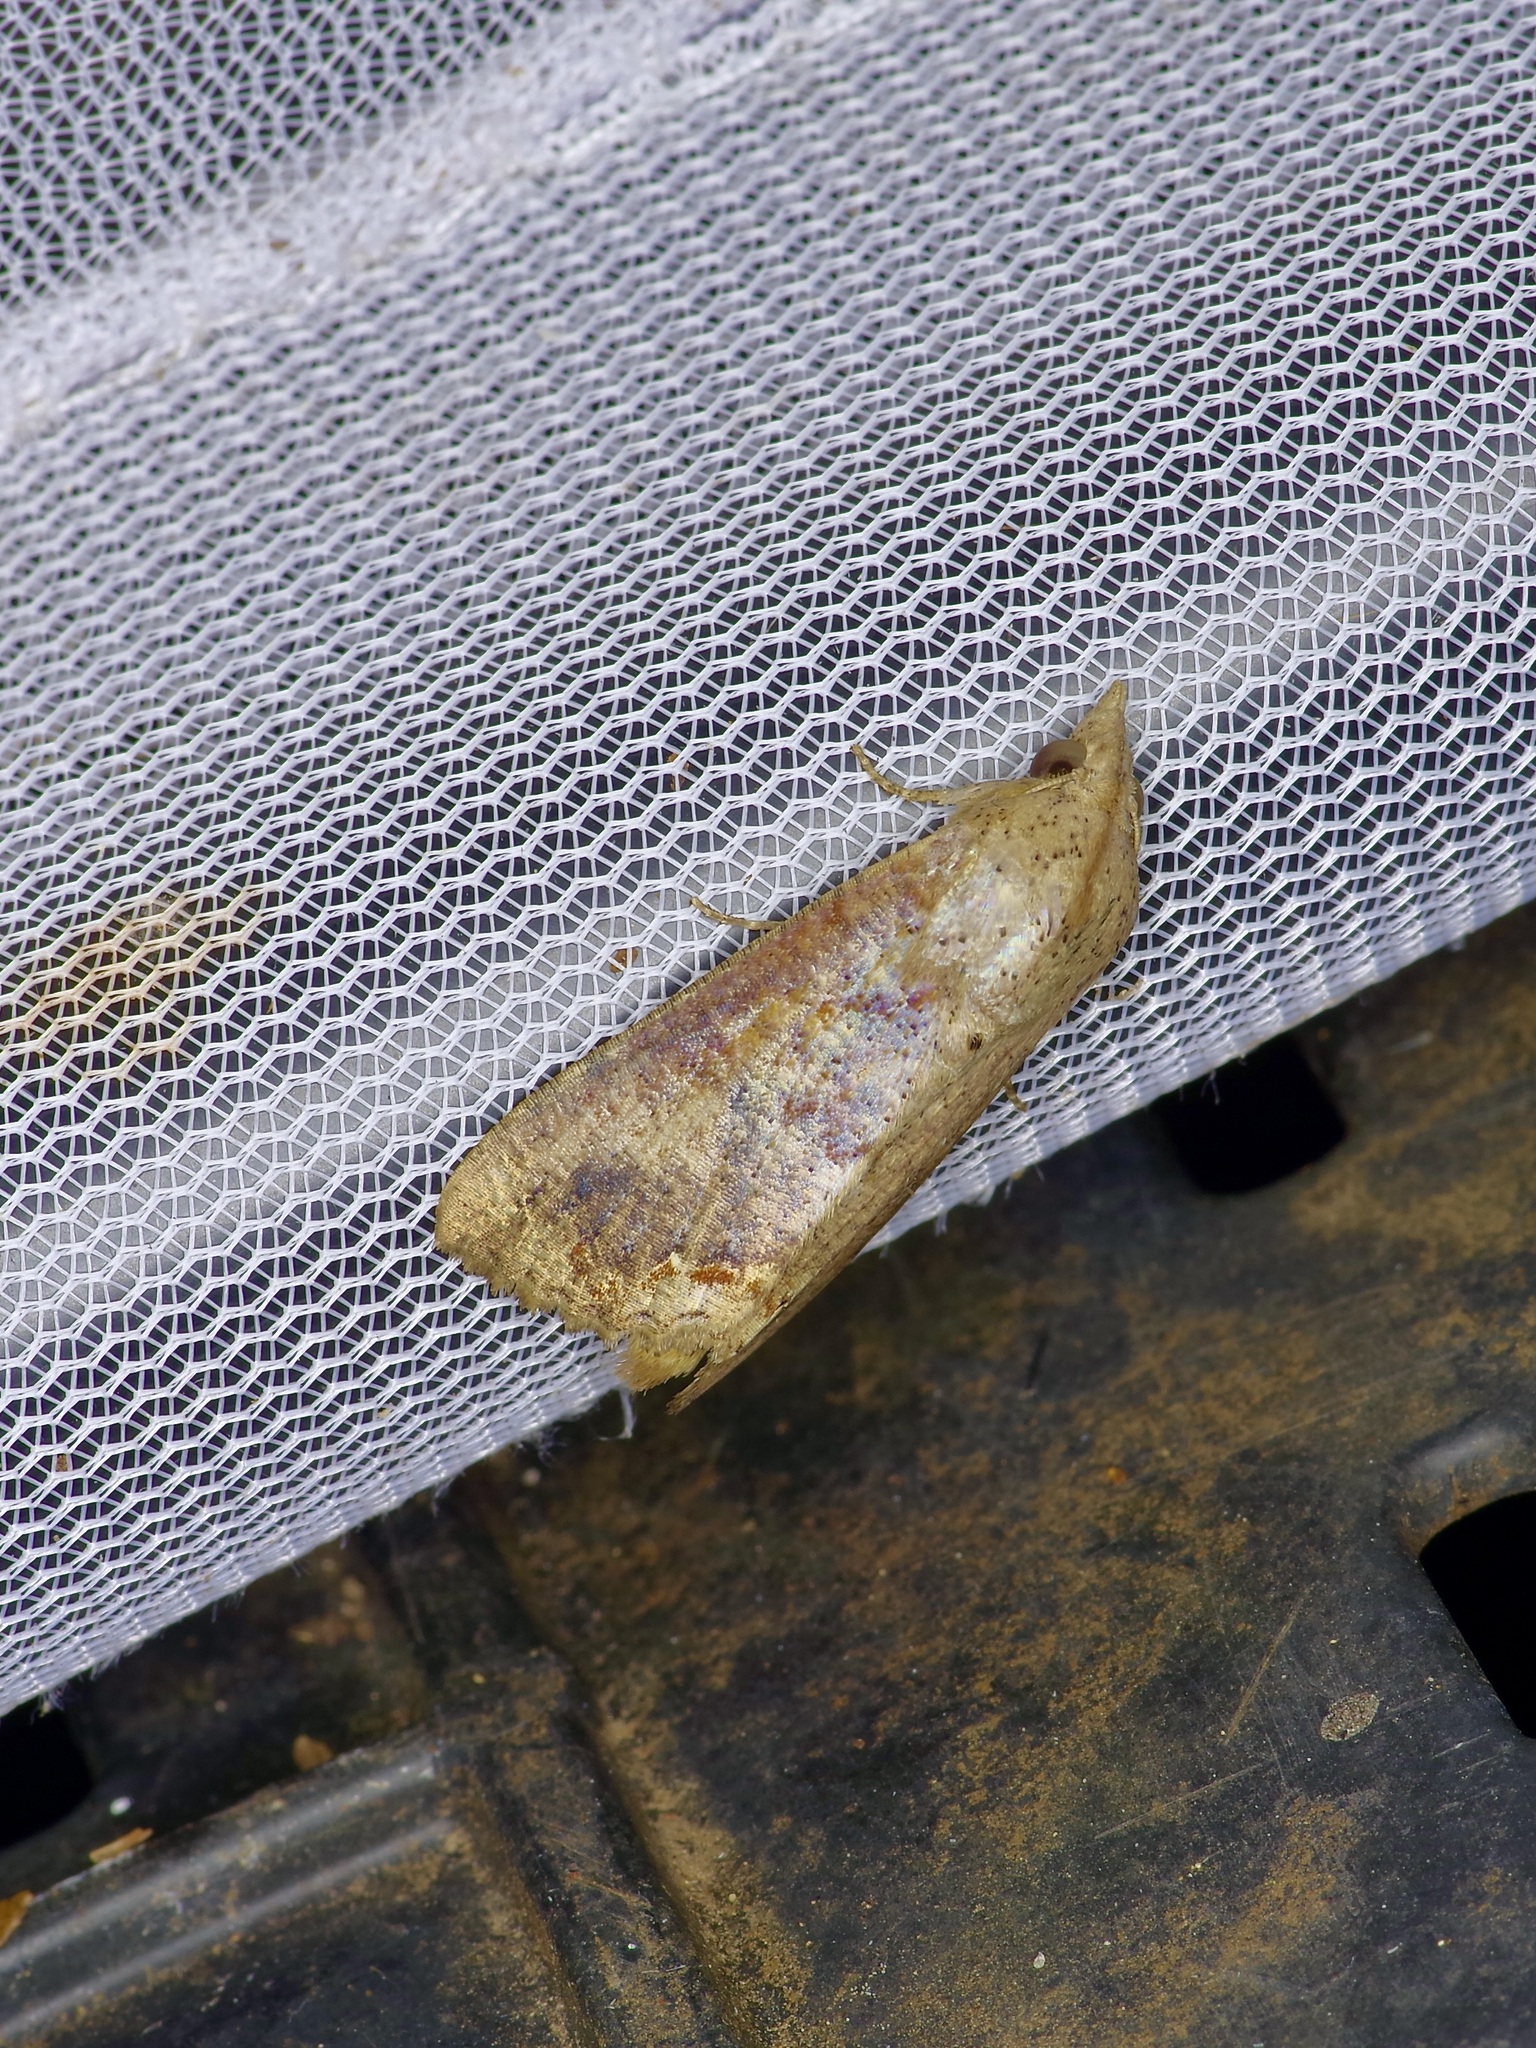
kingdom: Animalia
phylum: Arthropoda
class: Insecta
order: Lepidoptera
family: Erebidae
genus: Hypocala
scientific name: Hypocala andremona
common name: Hypocala moth
